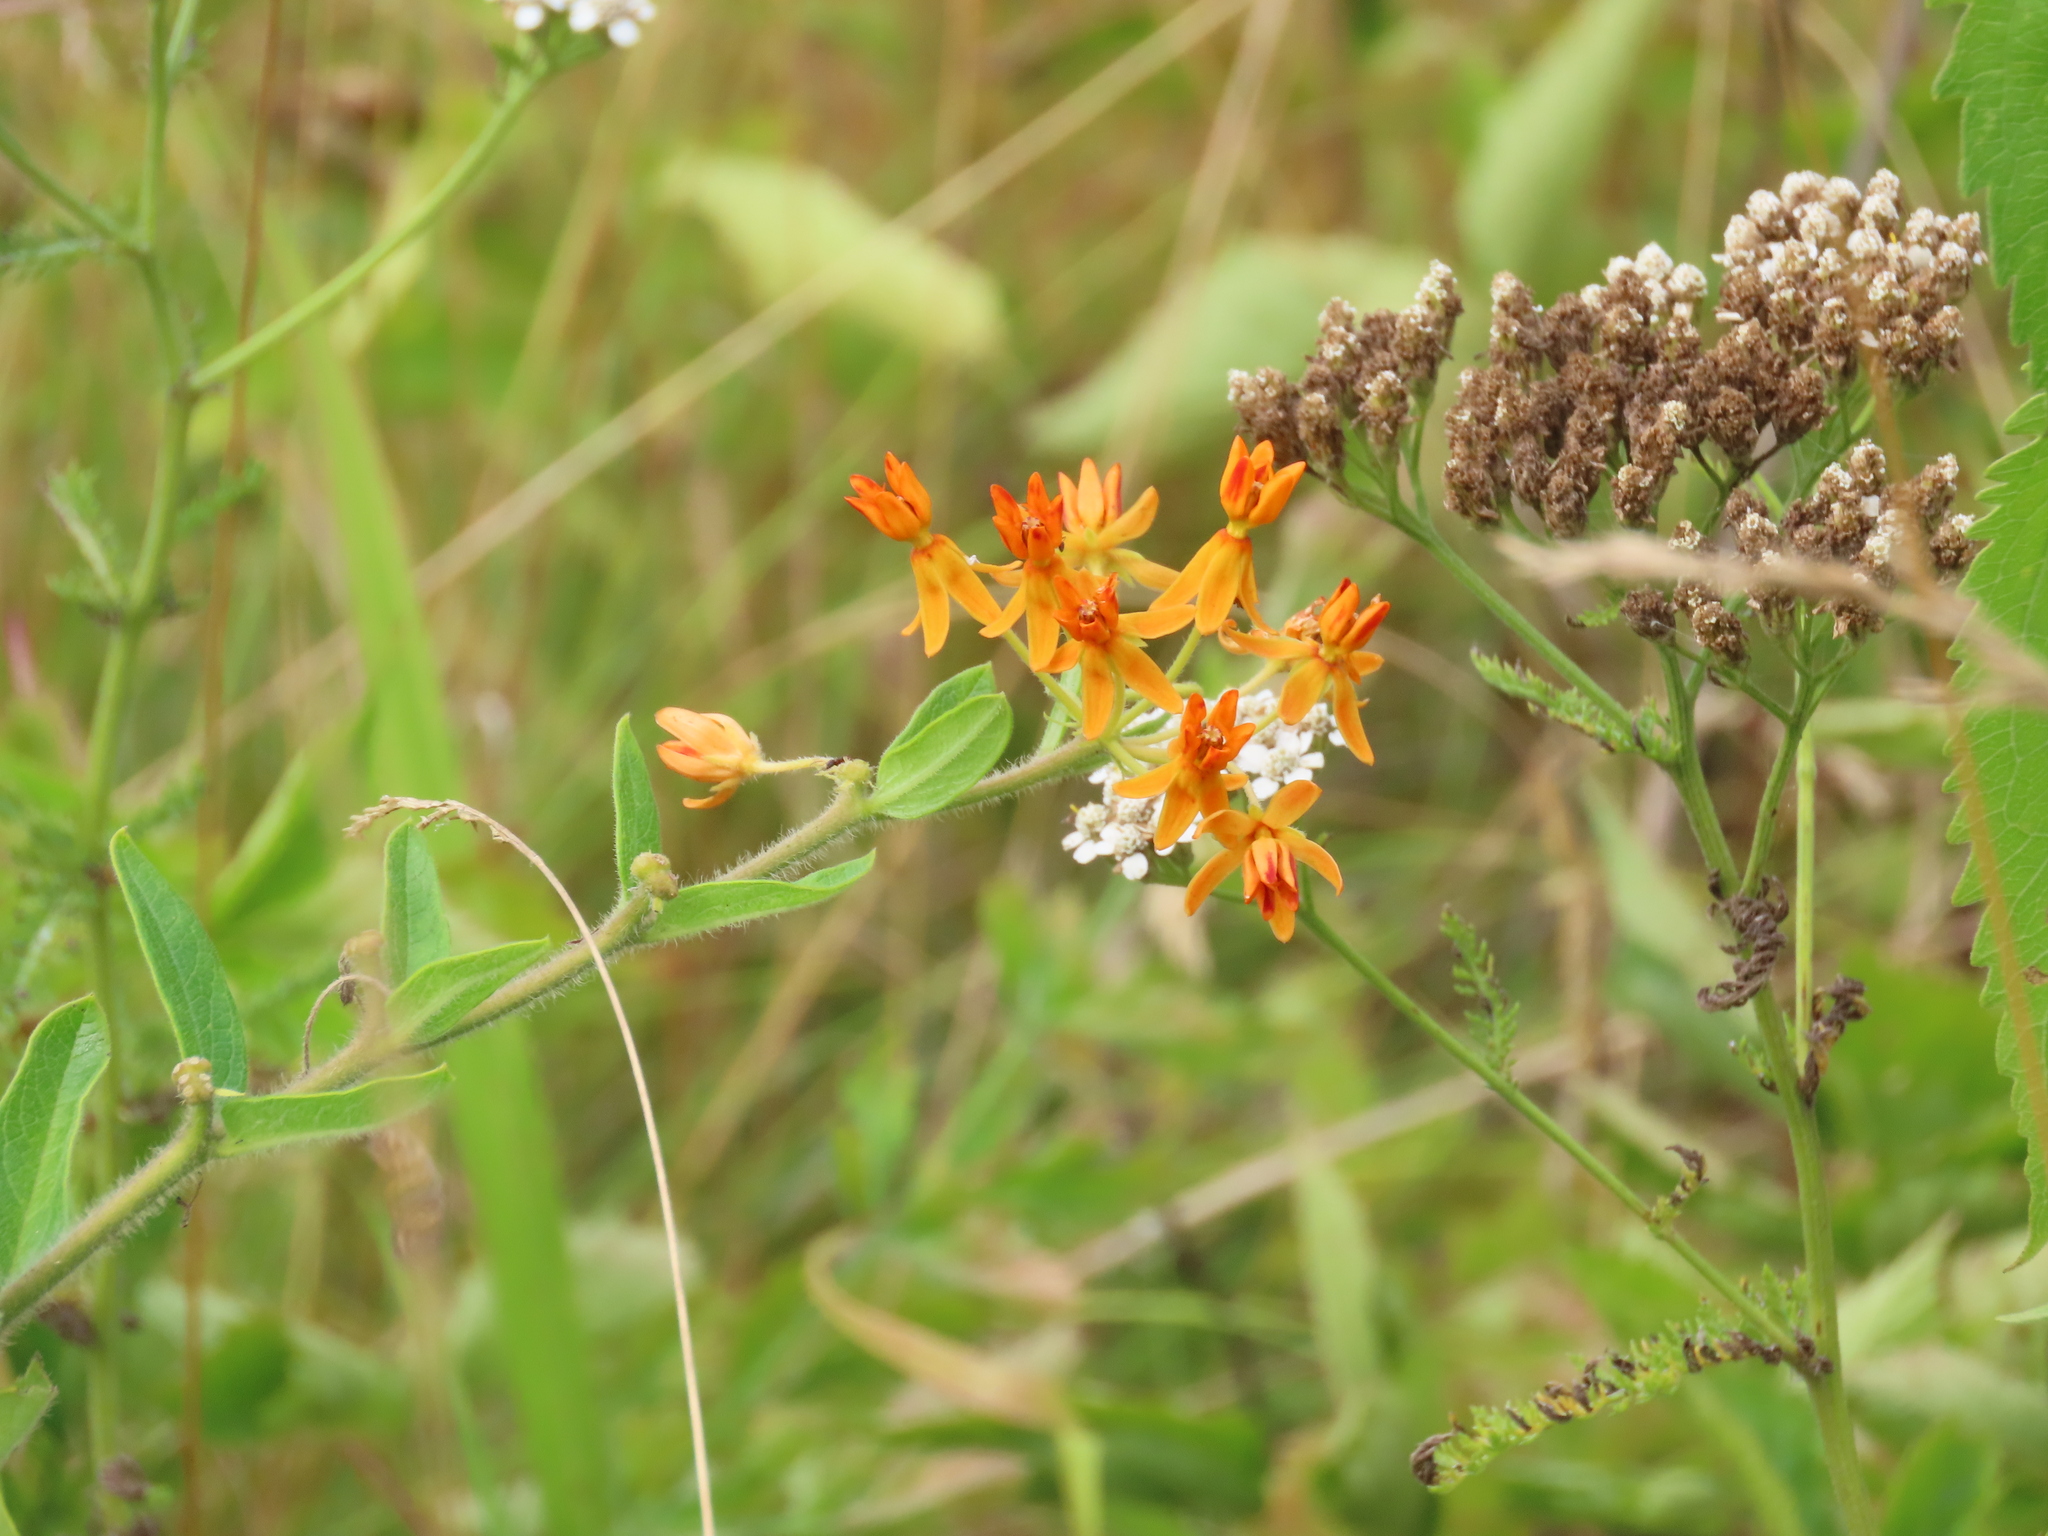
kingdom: Plantae
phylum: Tracheophyta
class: Magnoliopsida
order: Gentianales
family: Apocynaceae
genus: Asclepias
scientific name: Asclepias tuberosa
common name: Butterfly milkweed
